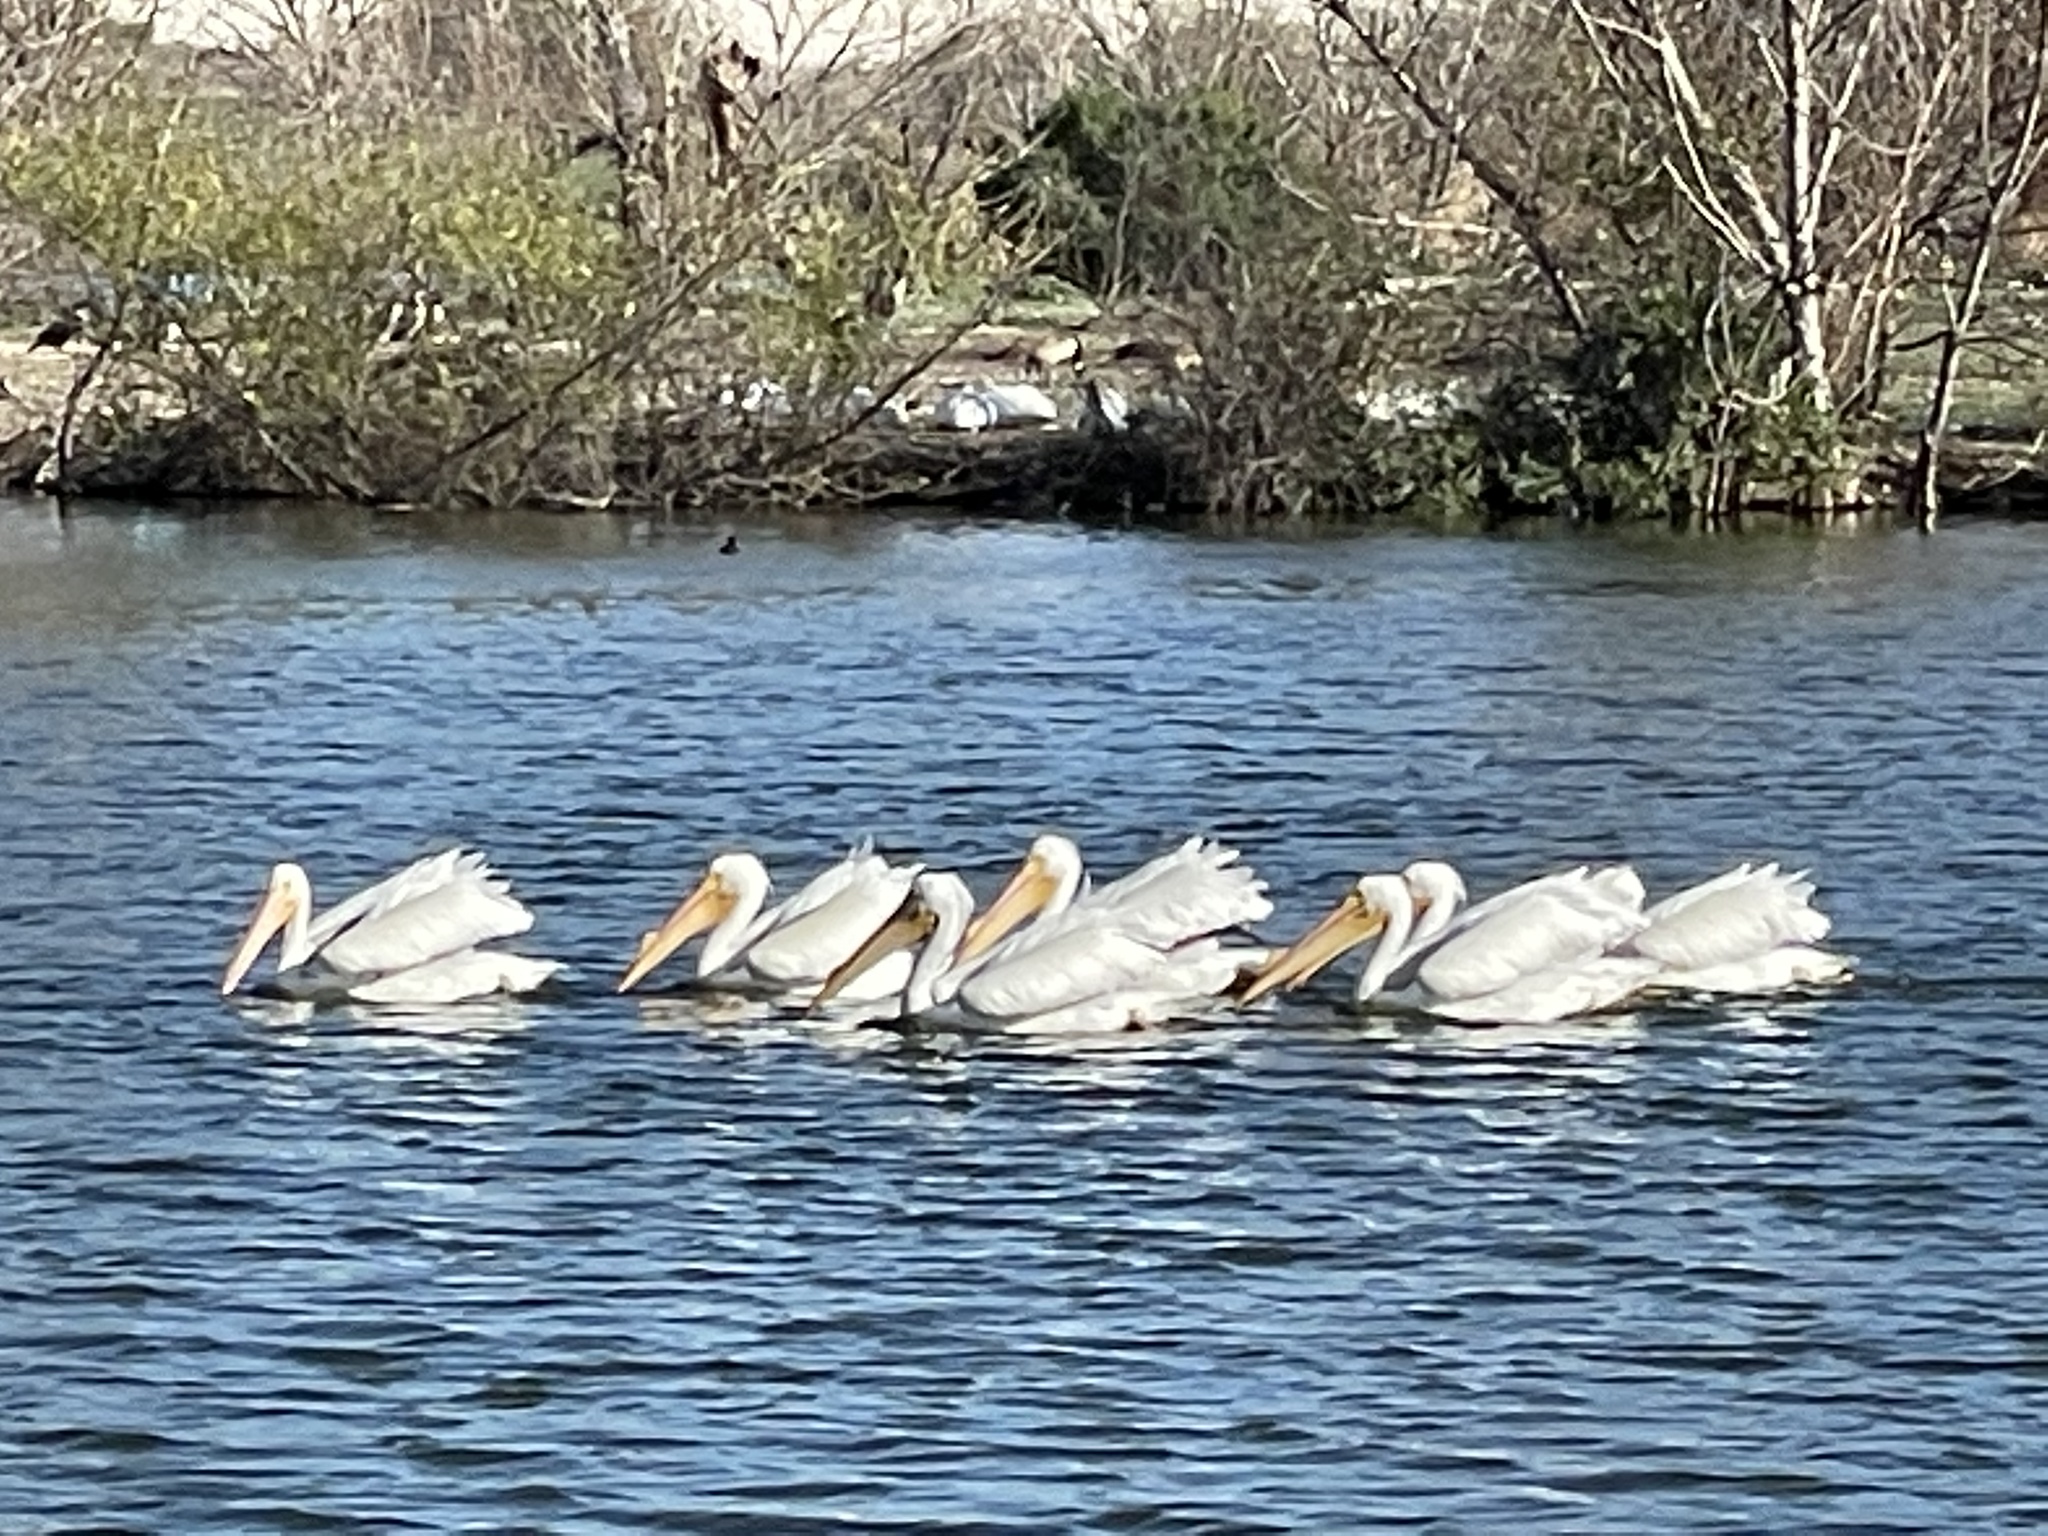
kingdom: Animalia
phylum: Chordata
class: Aves
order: Pelecaniformes
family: Pelecanidae
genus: Pelecanus
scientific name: Pelecanus erythrorhynchos
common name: American white pelican
